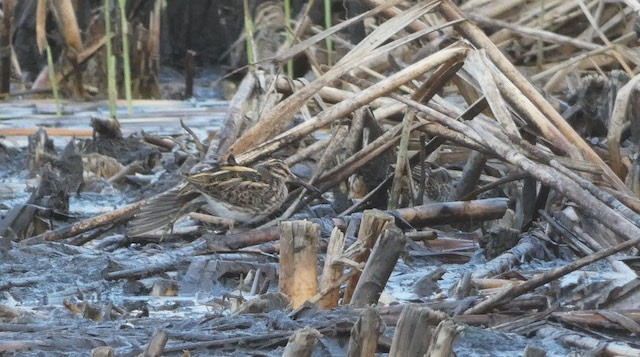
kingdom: Animalia
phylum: Chordata
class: Aves
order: Charadriiformes
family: Scolopacidae
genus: Lymnocryptes
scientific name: Lymnocryptes minimus
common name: Jack snipe
